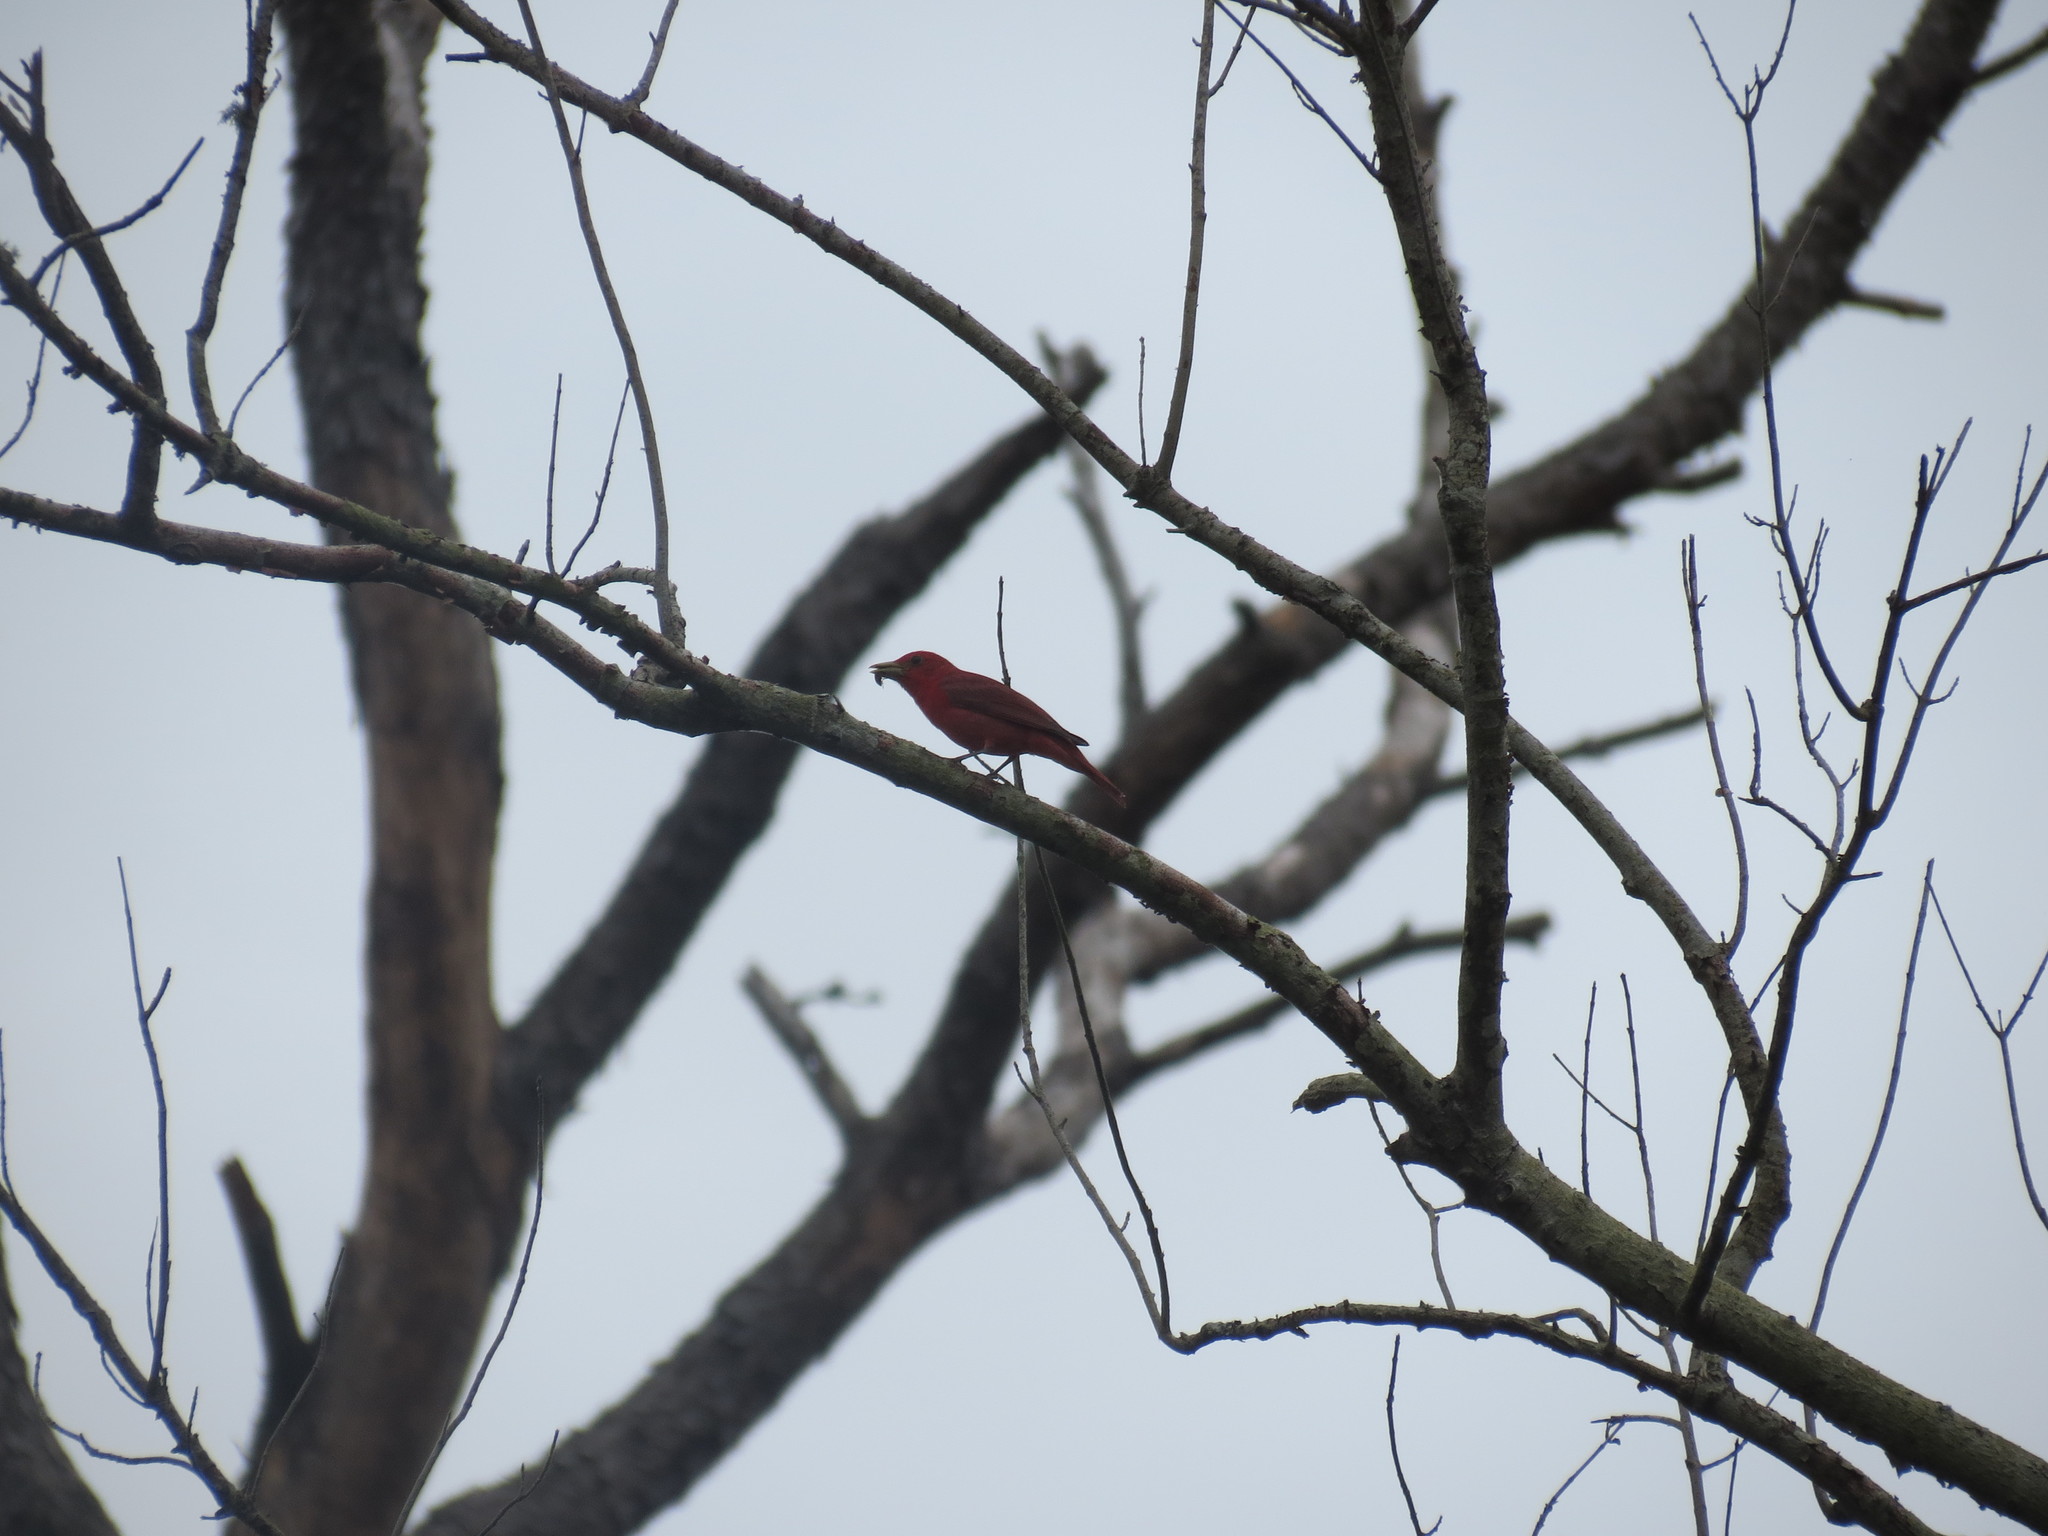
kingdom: Animalia
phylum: Chordata
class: Aves
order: Passeriformes
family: Cardinalidae
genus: Piranga
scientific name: Piranga rubra
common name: Summer tanager
